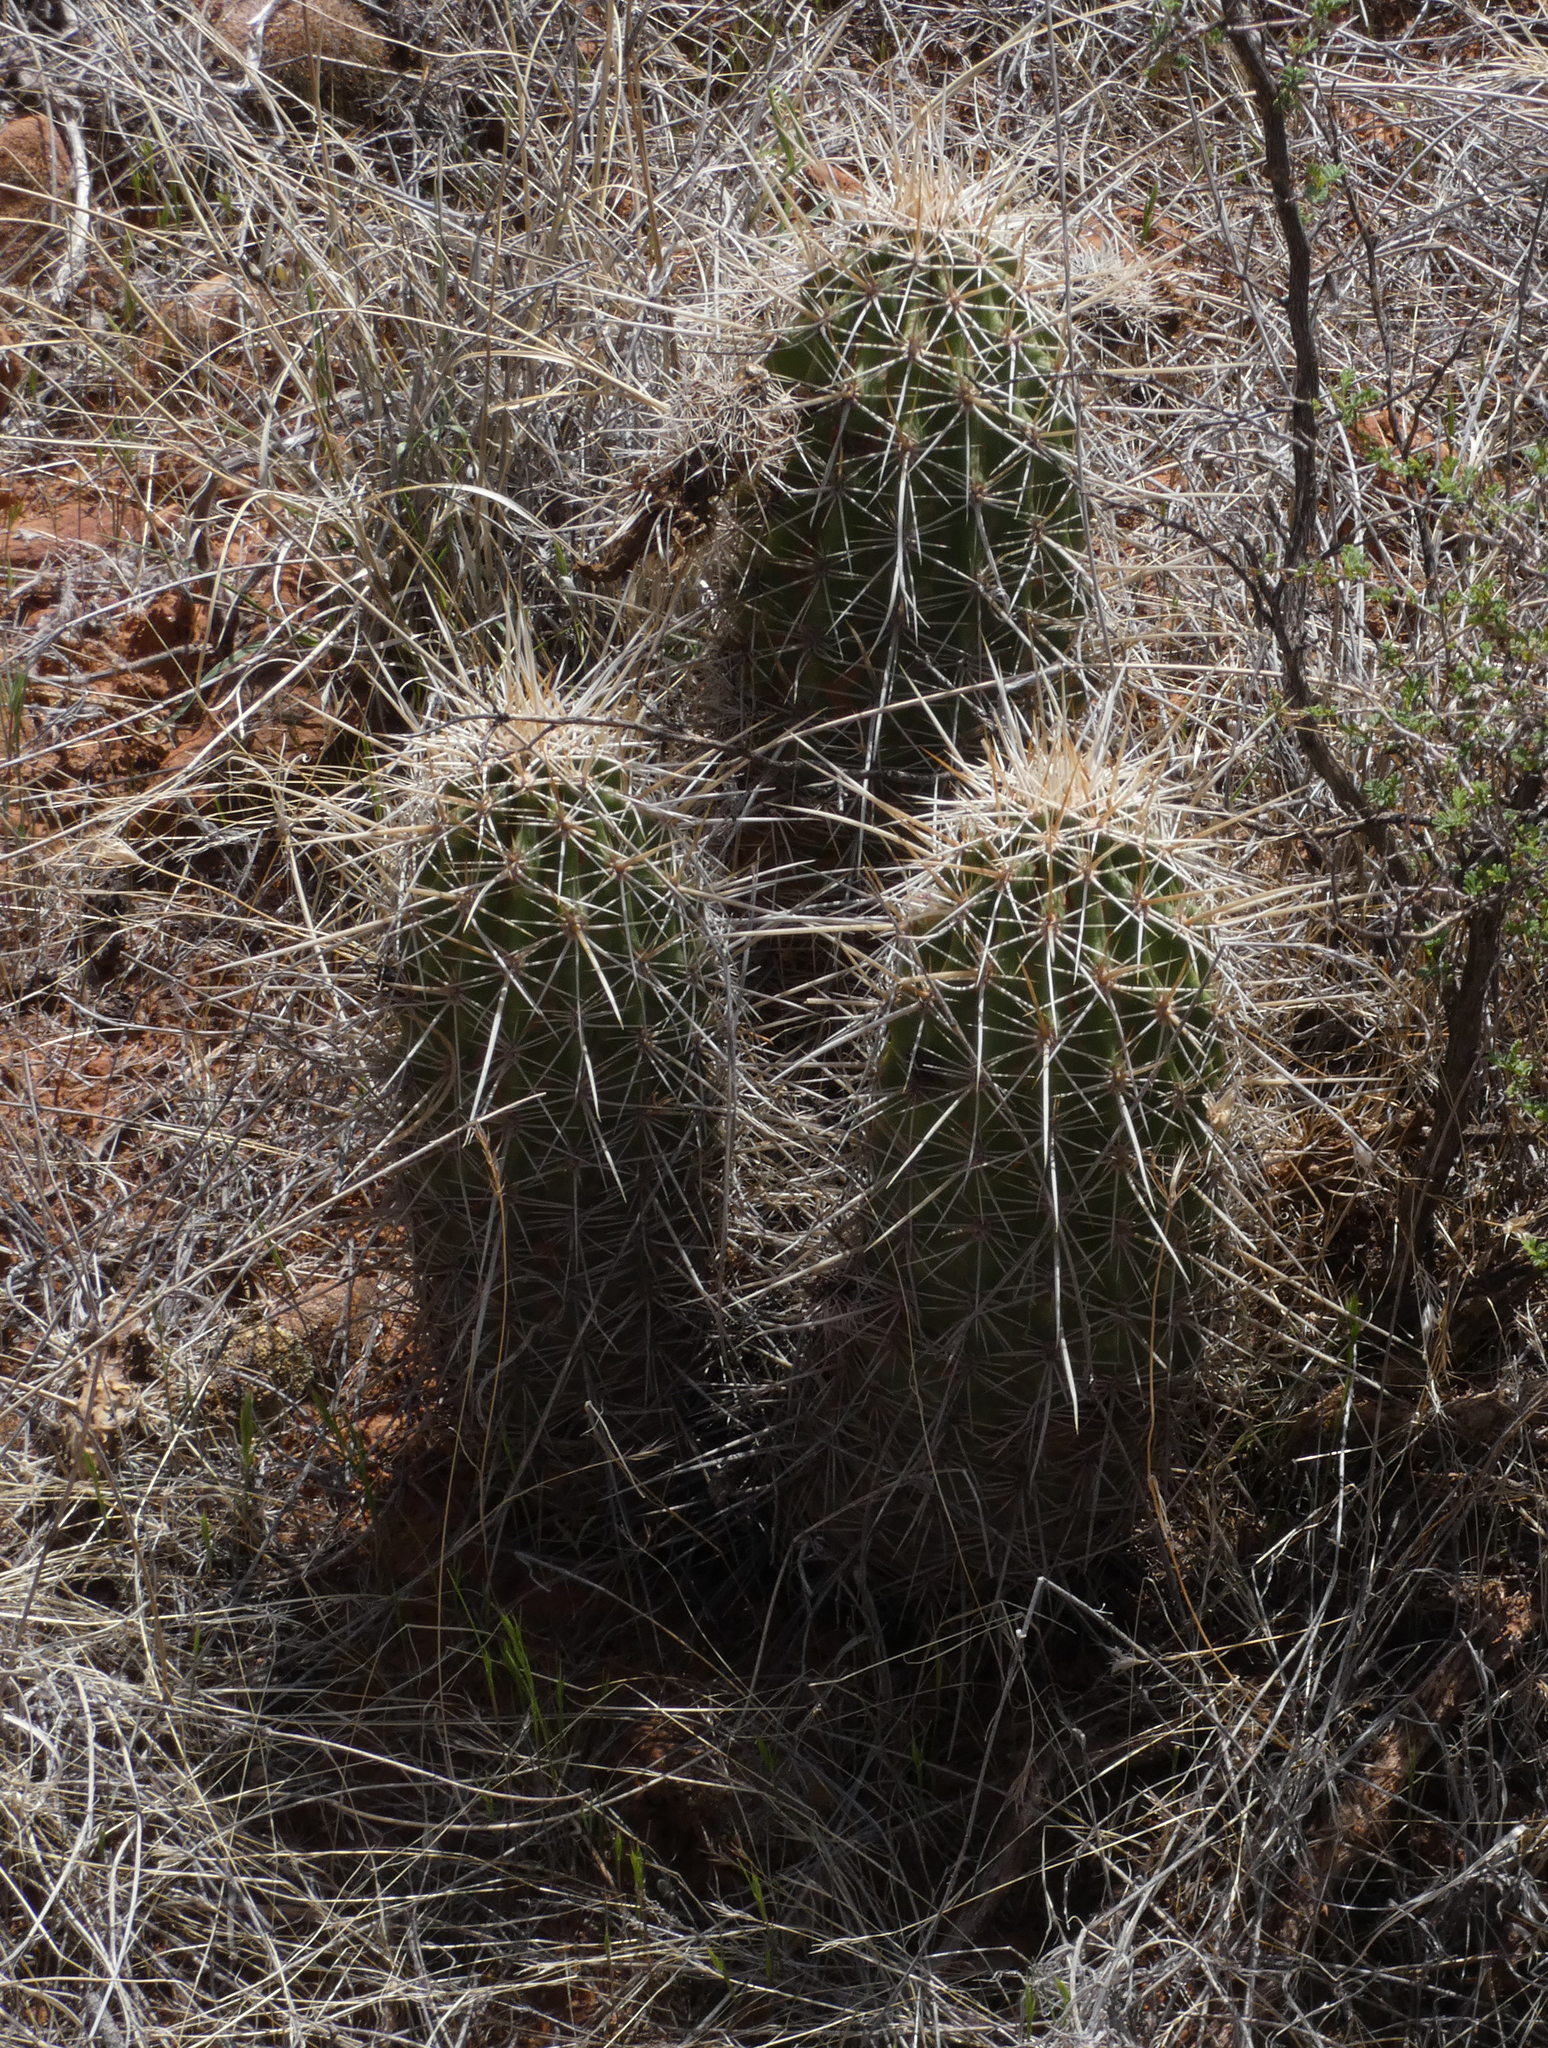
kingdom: Plantae
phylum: Tracheophyta
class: Magnoliopsida
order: Caryophyllales
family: Cactaceae
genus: Echinocereus
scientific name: Echinocereus fasciculatus
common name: Bundle hedgehog
